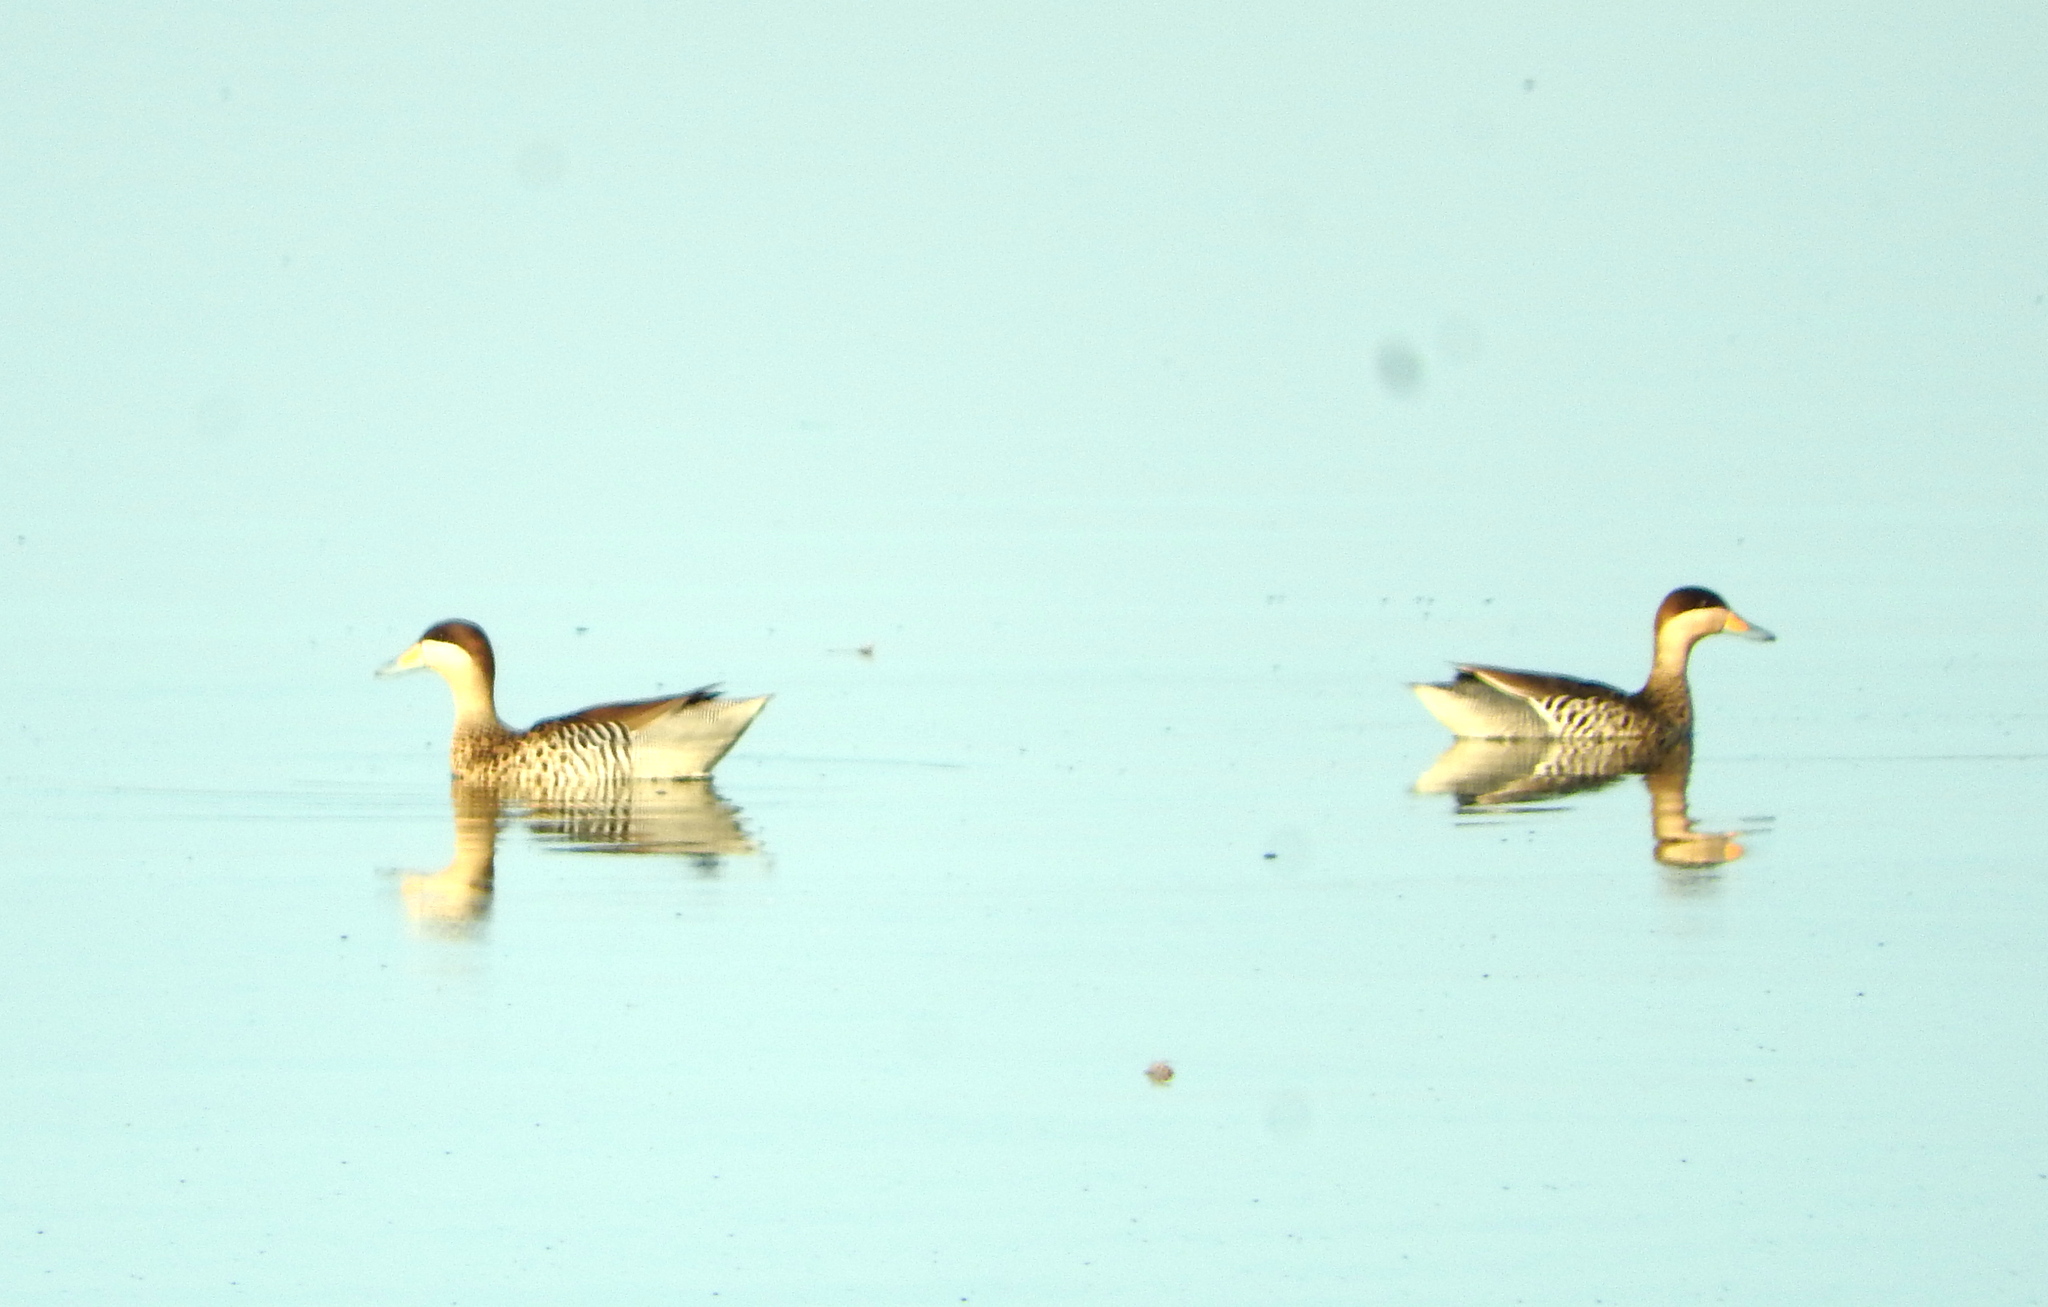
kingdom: Animalia
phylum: Chordata
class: Aves
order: Anseriformes
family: Anatidae
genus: Spatula
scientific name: Spatula versicolor
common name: Silver teal
